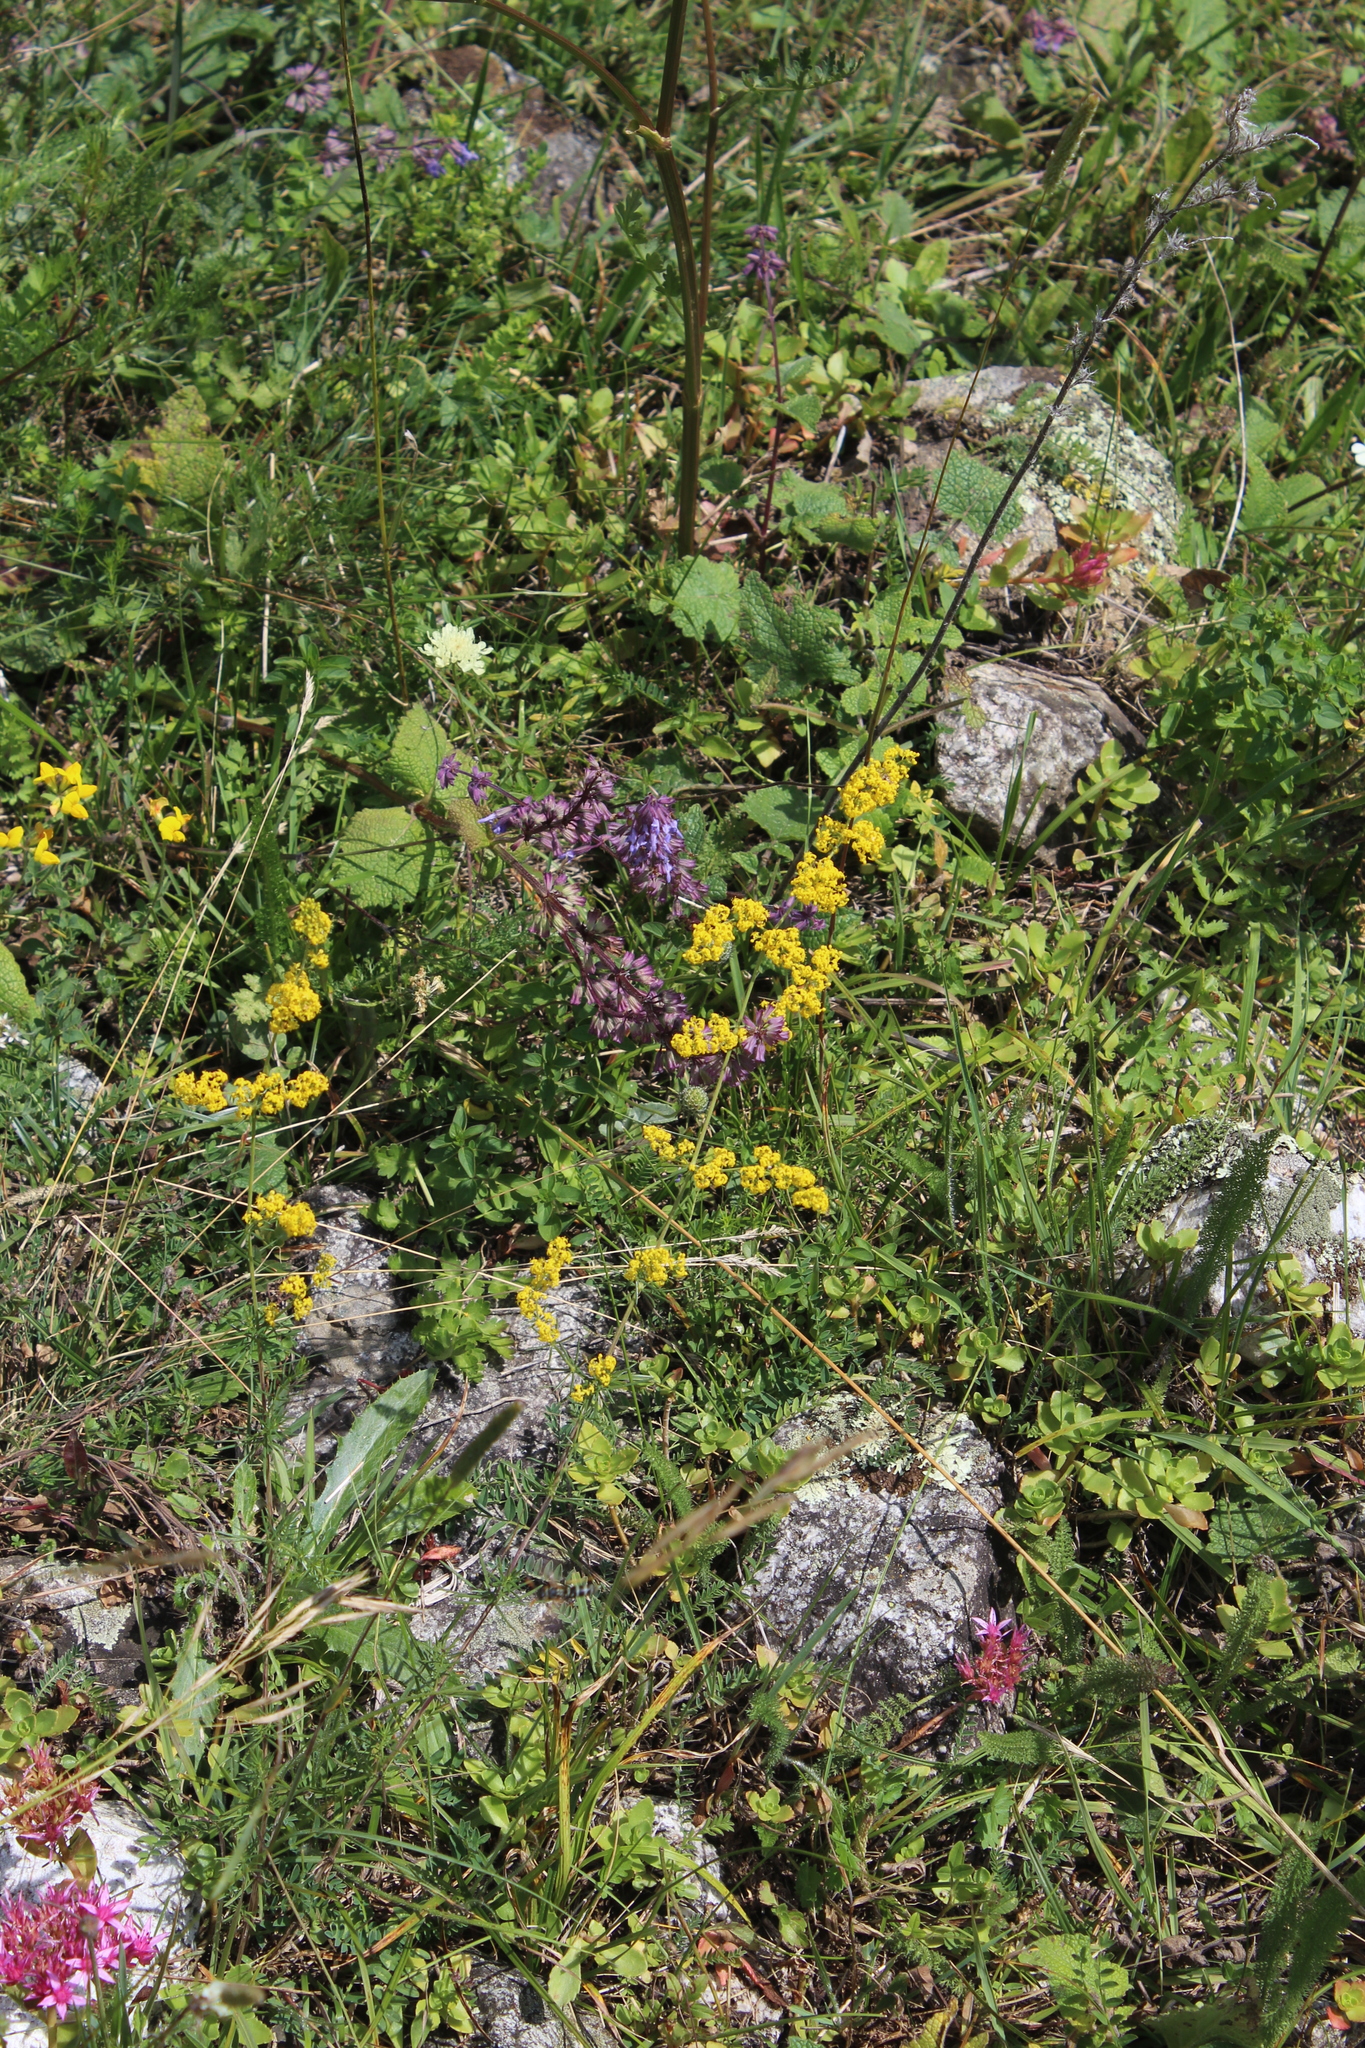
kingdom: Plantae
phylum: Tracheophyta
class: Magnoliopsida
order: Gentianales
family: Rubiaceae
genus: Galium
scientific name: Galium verum
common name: Lady's bedstraw
